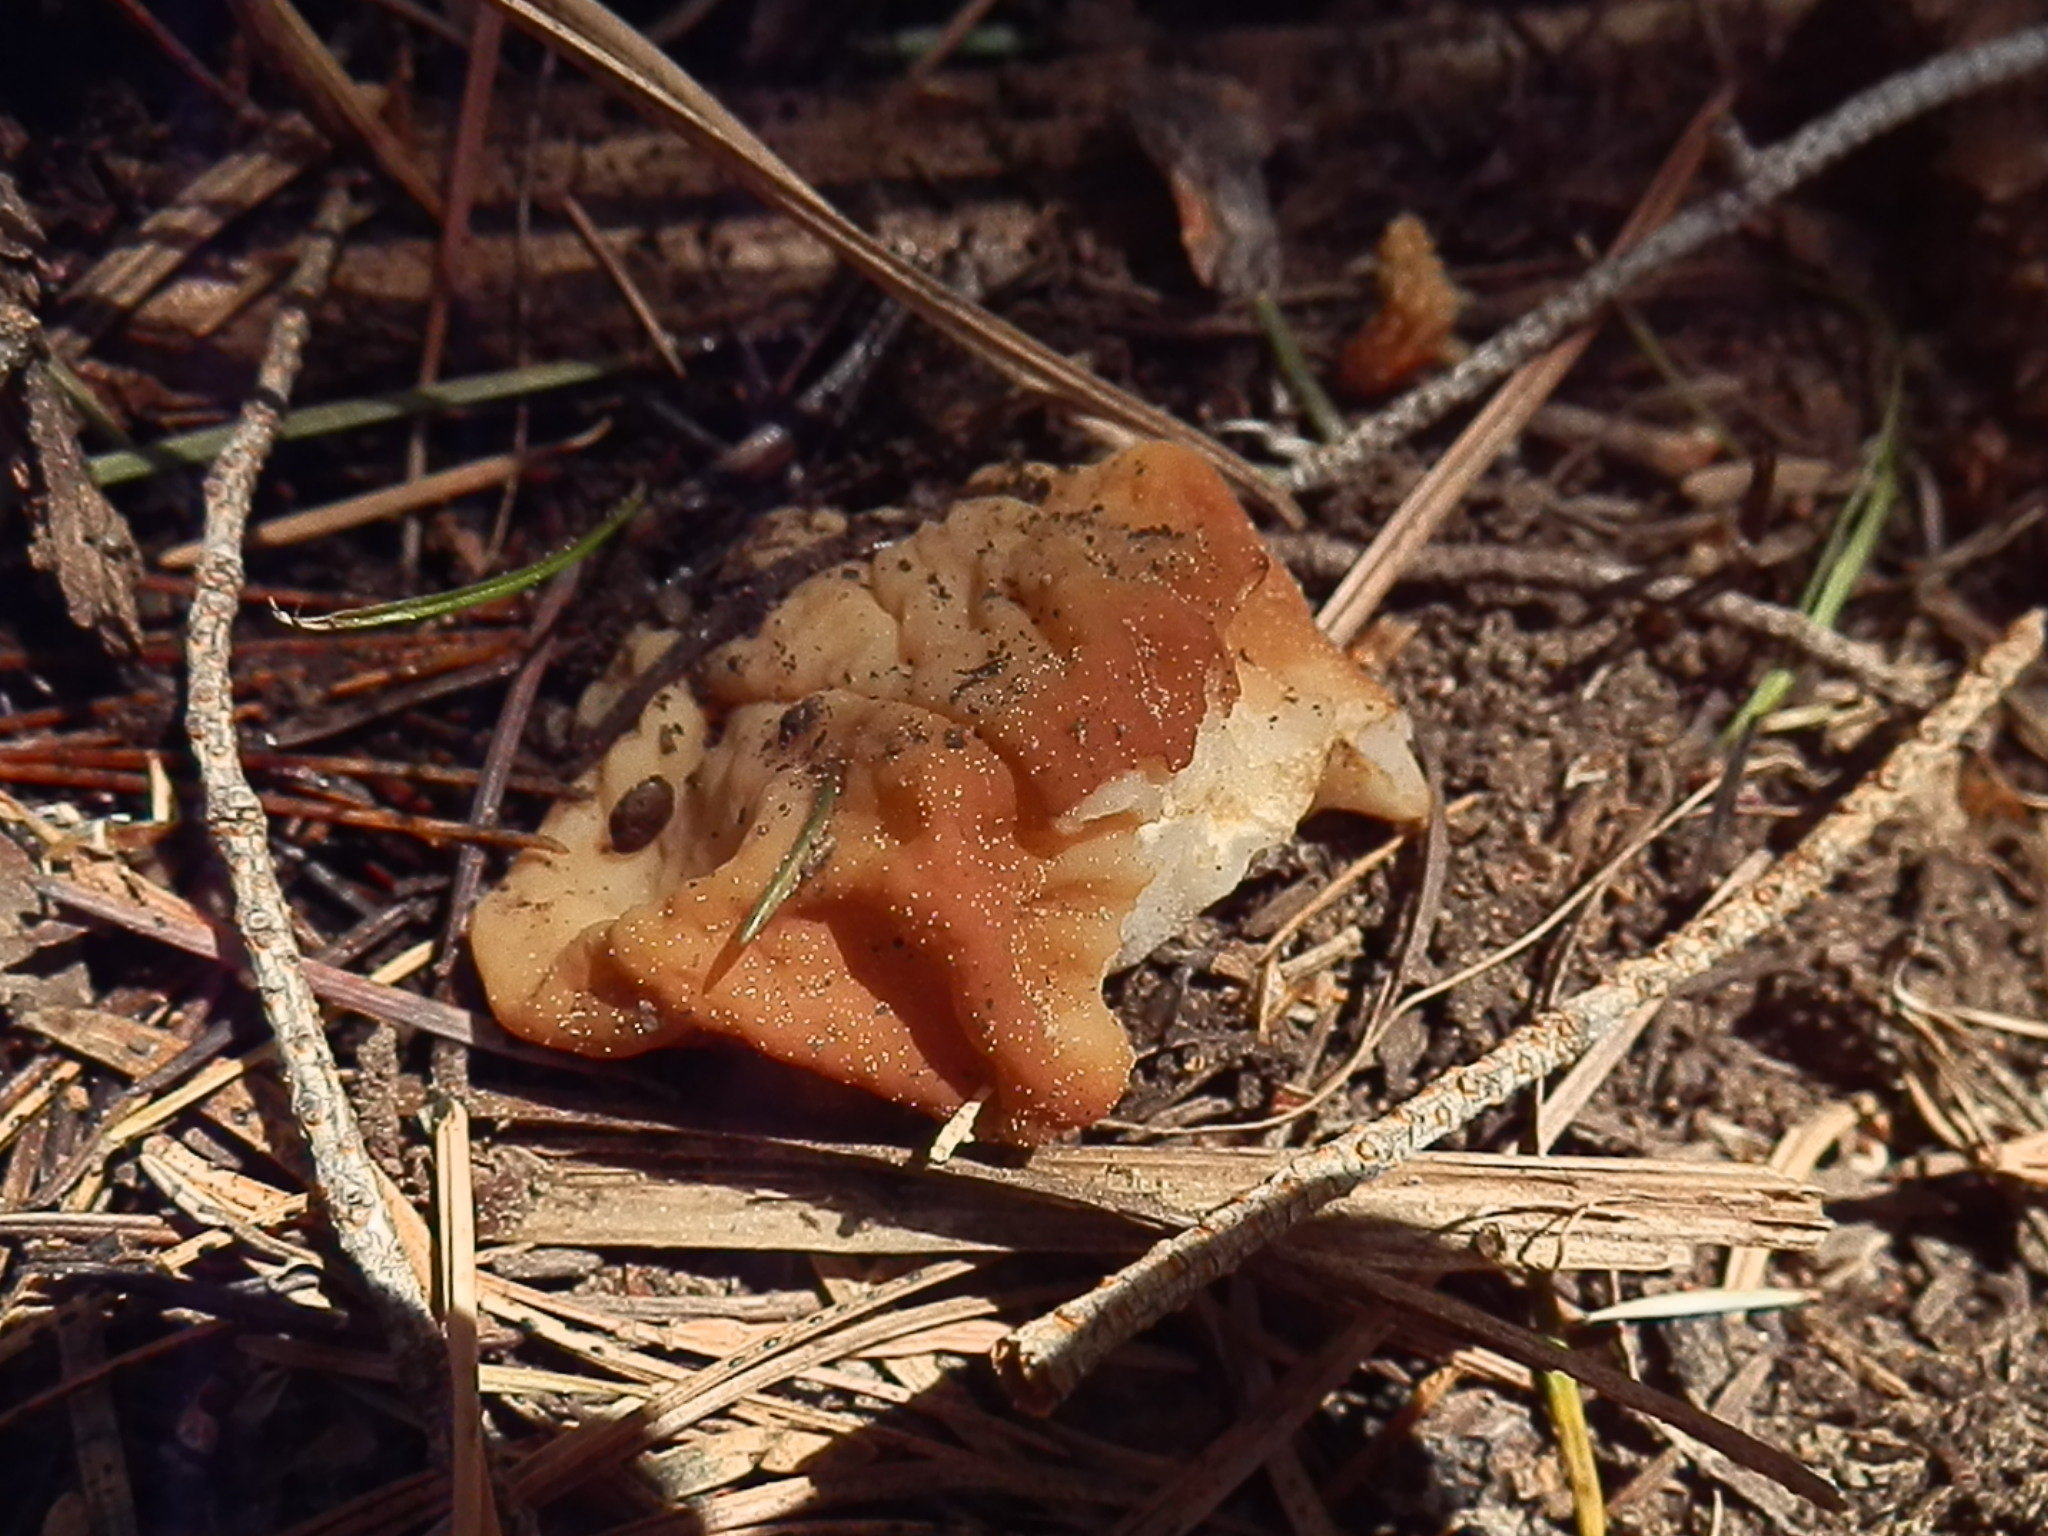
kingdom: Fungi
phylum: Ascomycota
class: Pezizomycetes
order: Pezizales
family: Discinaceae
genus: Discina
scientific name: Discina montana
